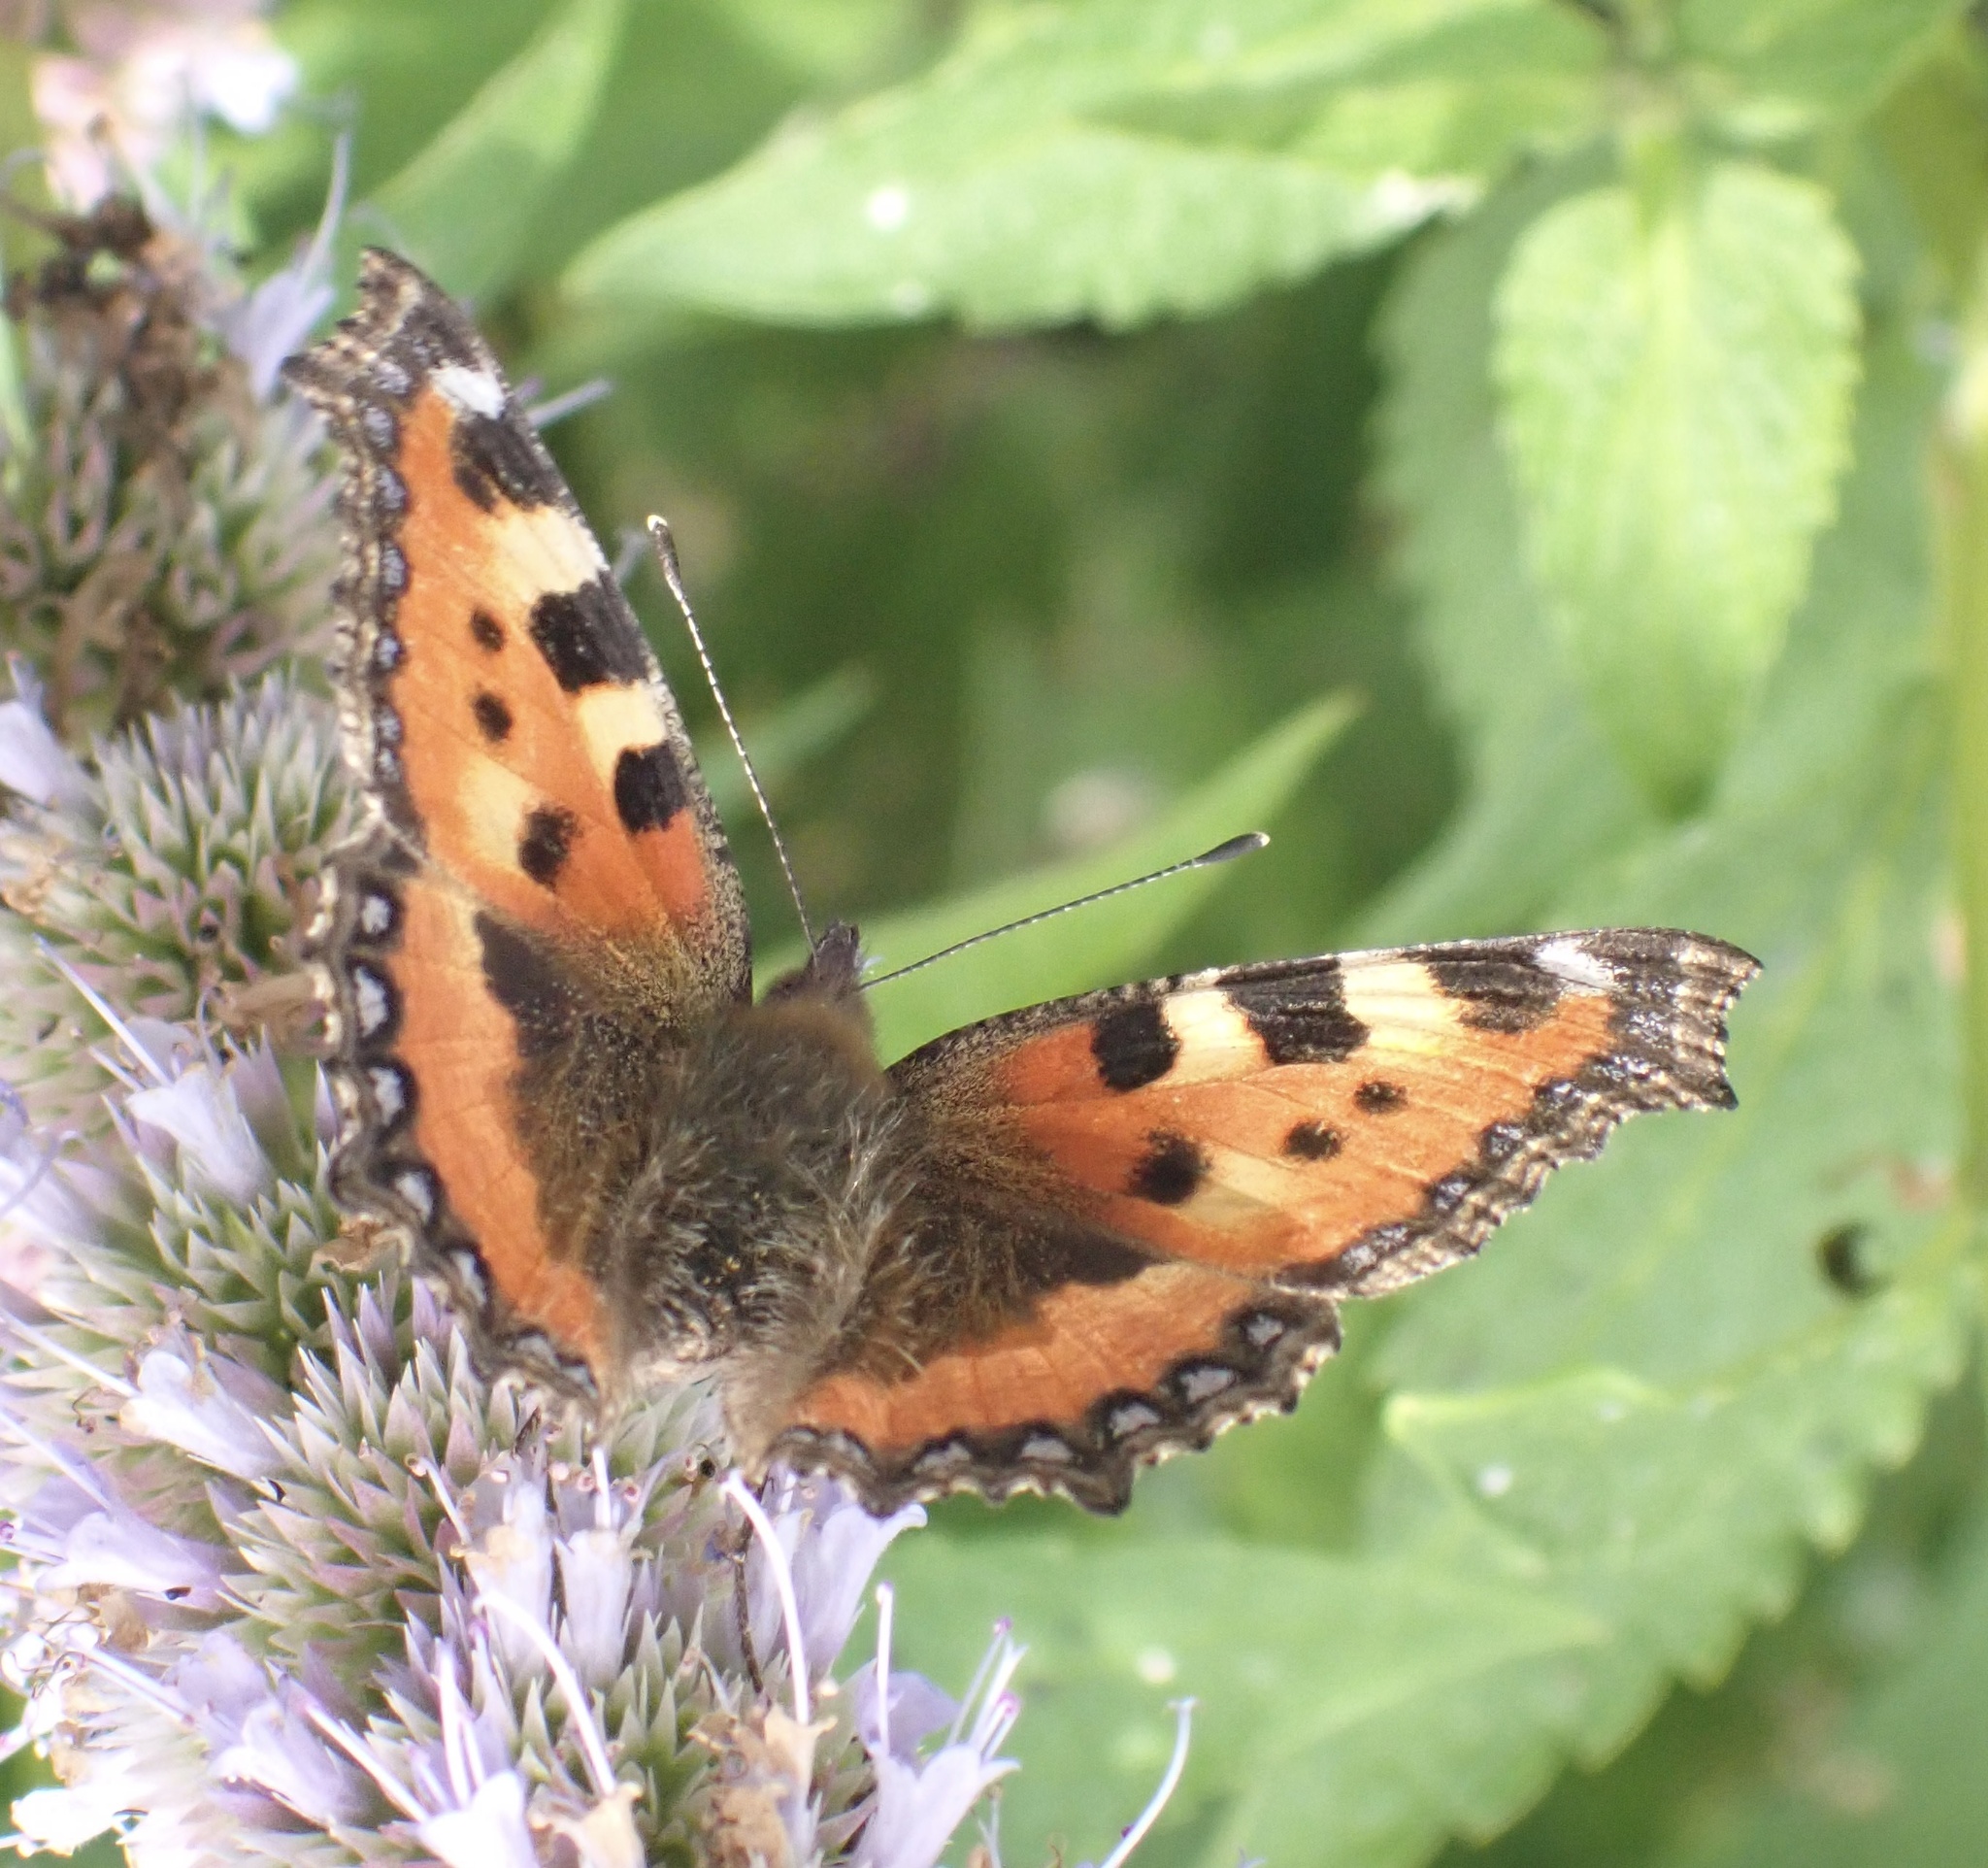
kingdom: Animalia
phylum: Arthropoda
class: Insecta
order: Lepidoptera
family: Nymphalidae
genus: Aglais
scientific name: Aglais urticae
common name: Small tortoiseshell
